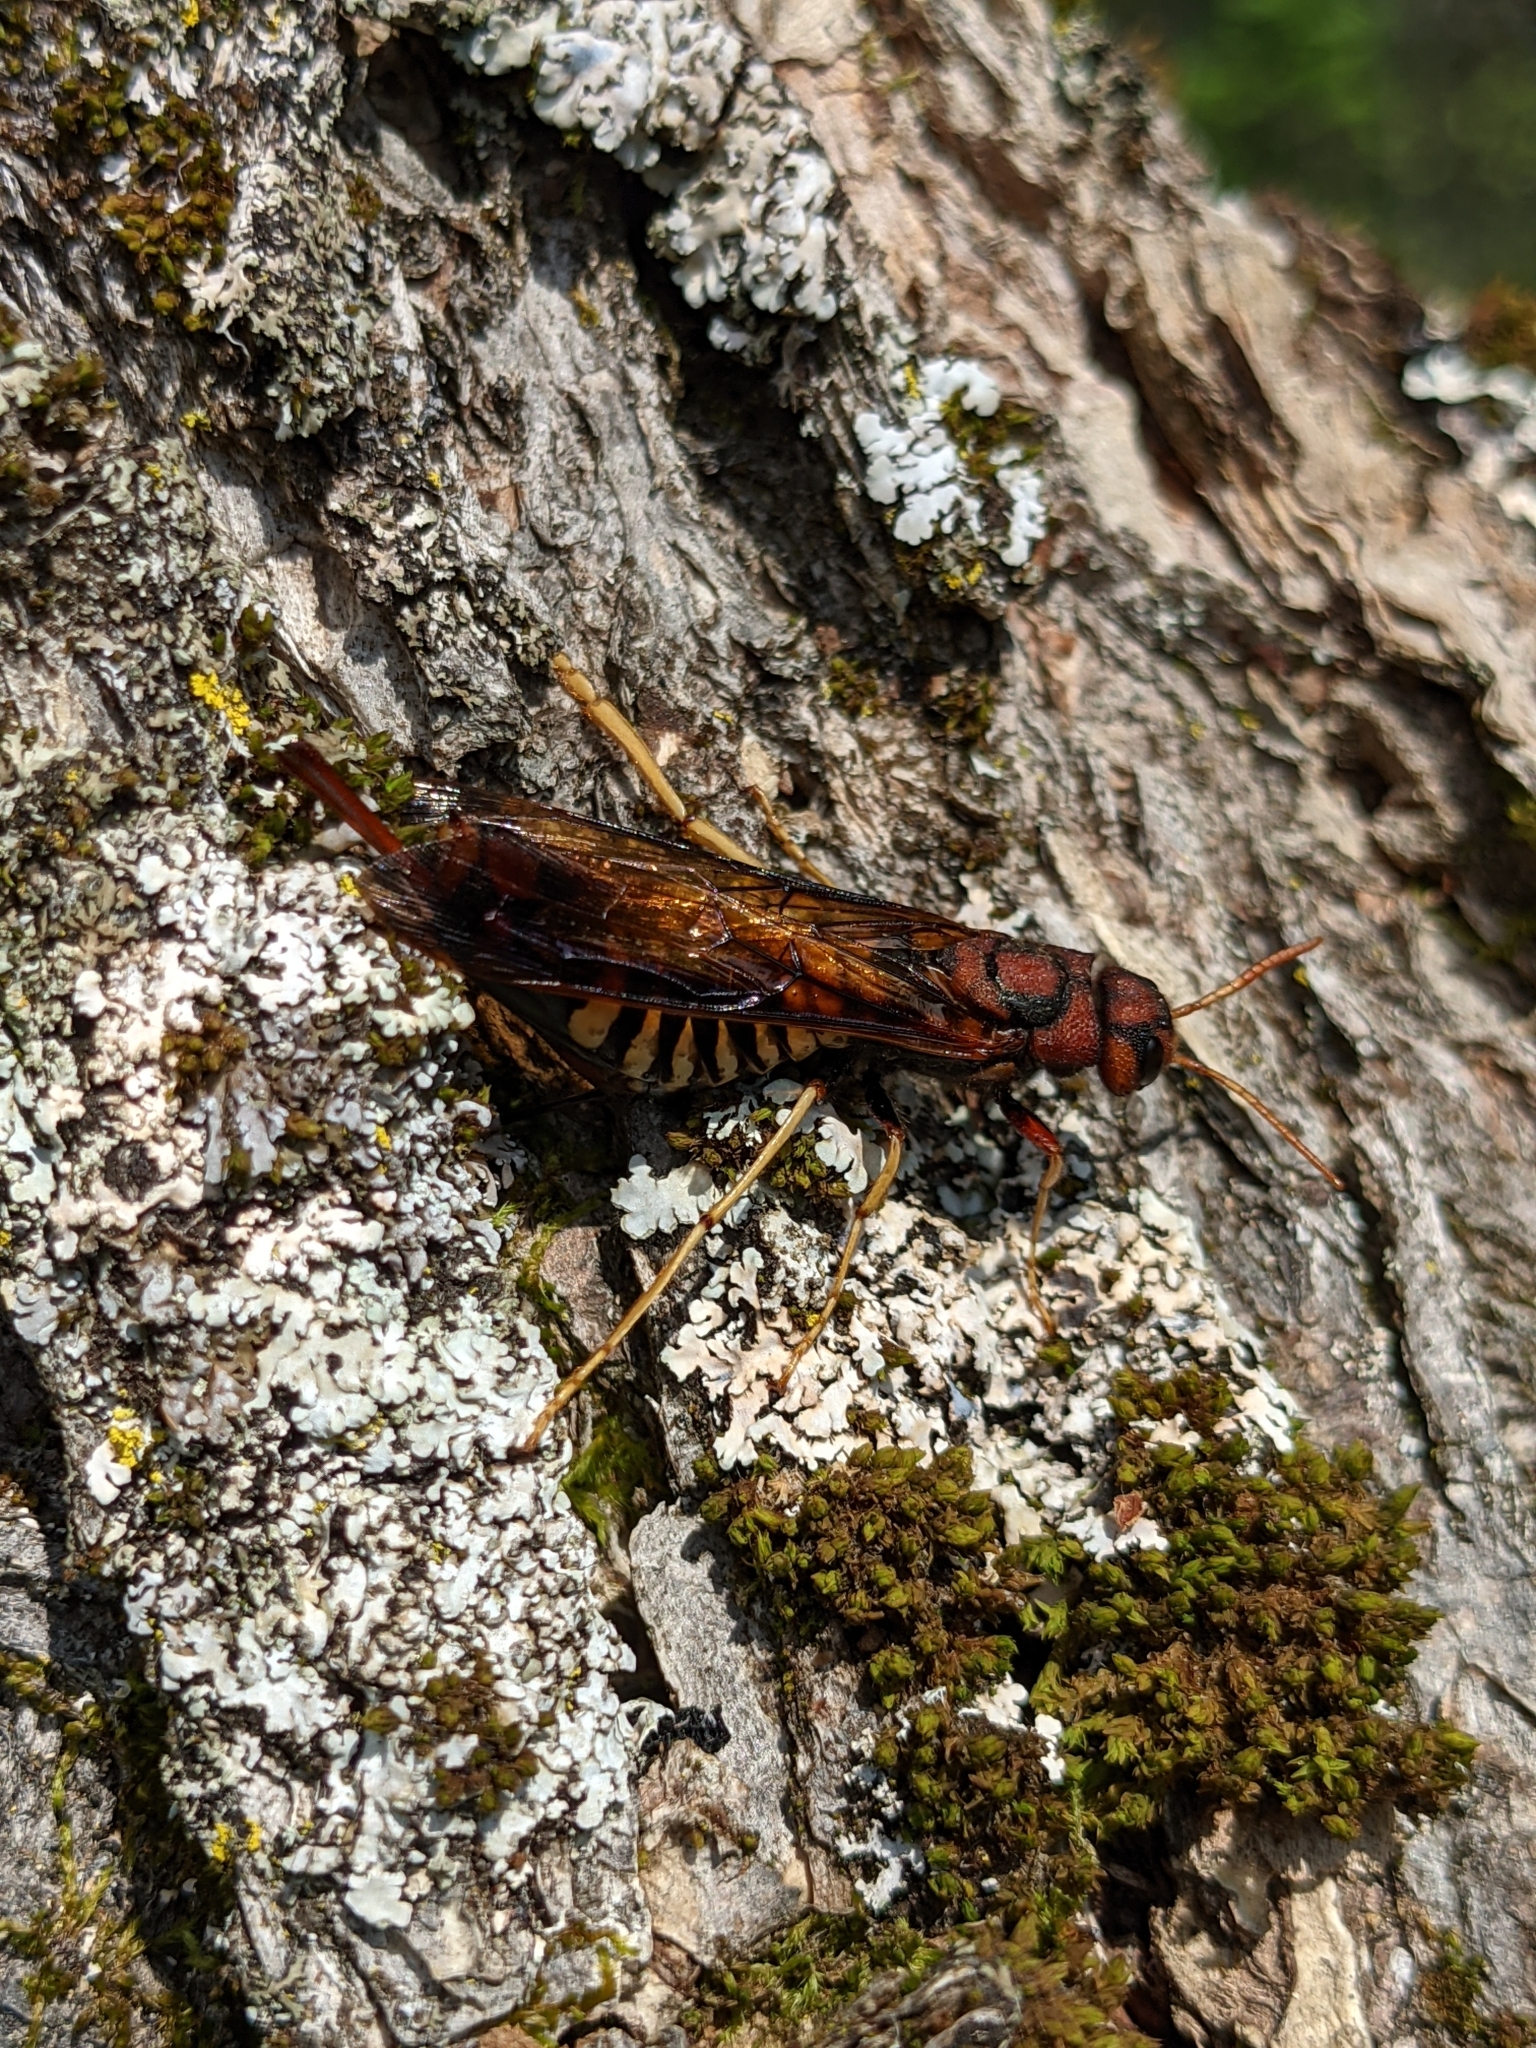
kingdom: Animalia
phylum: Arthropoda
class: Insecta
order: Hymenoptera
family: Siricidae
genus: Tremex
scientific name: Tremex columba
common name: Wasp
